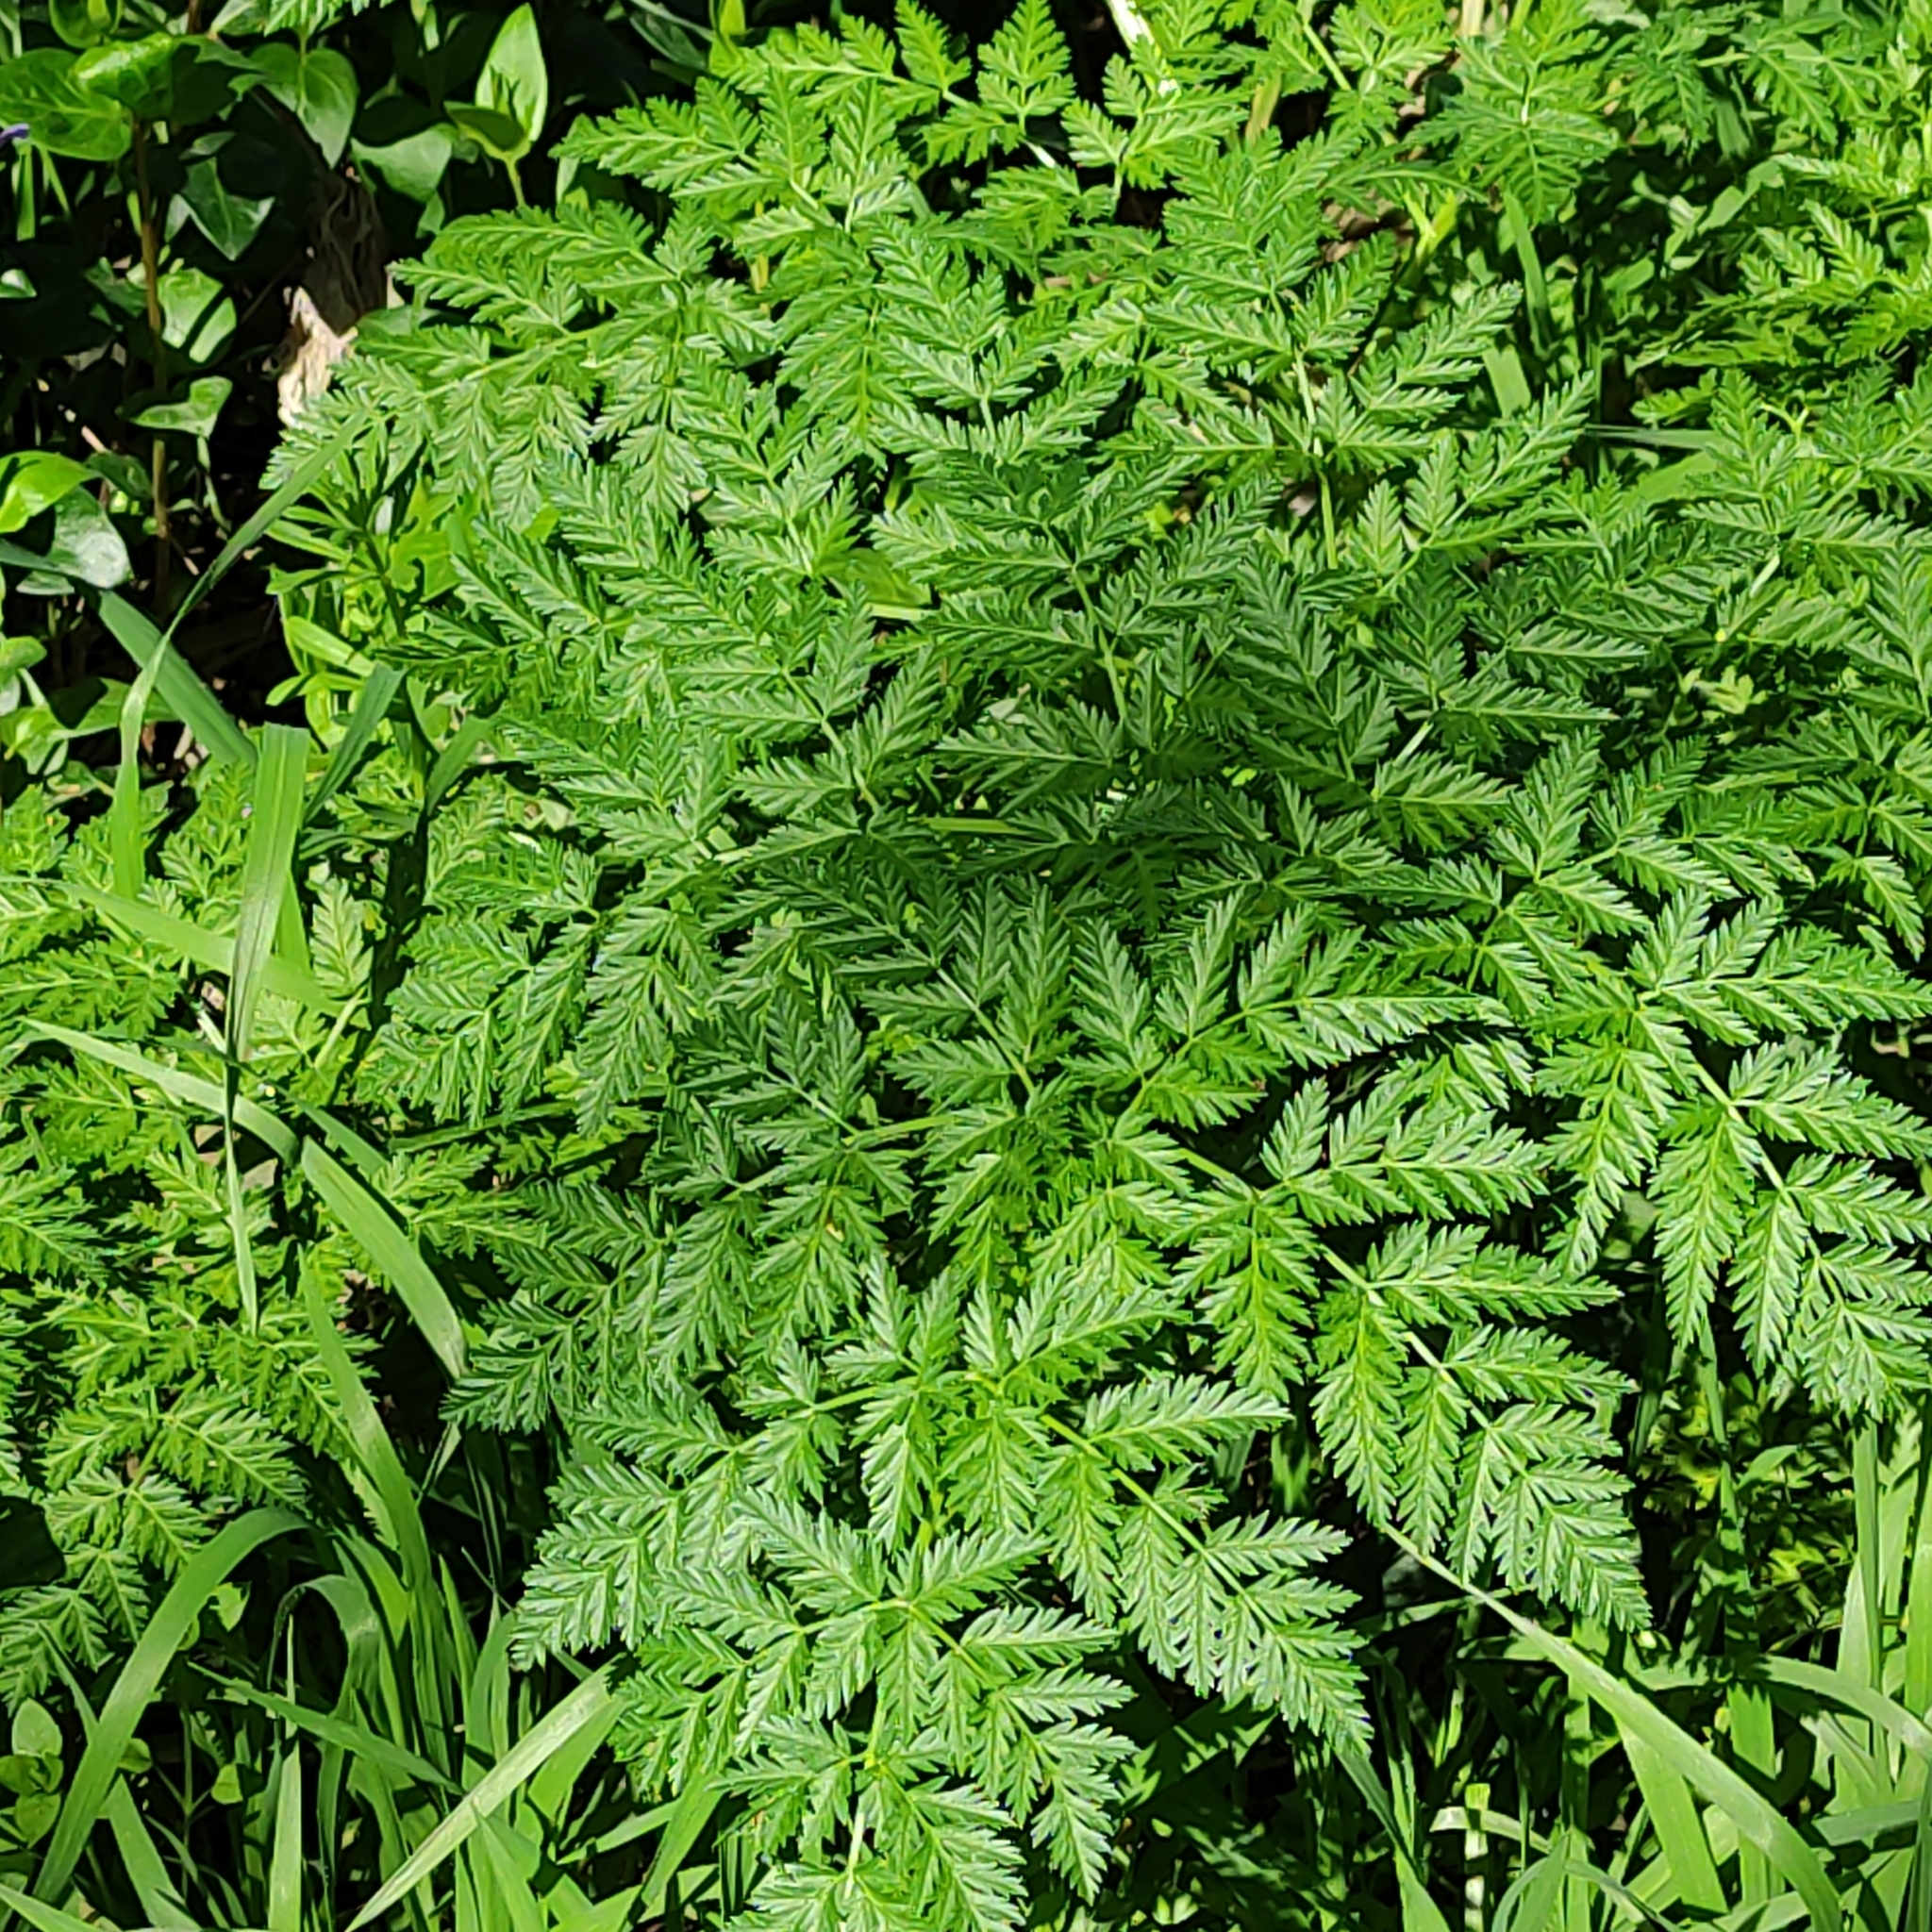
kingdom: Plantae
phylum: Tracheophyta
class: Magnoliopsida
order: Apiales
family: Apiaceae
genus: Conium
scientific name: Conium maculatum
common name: Hemlock
